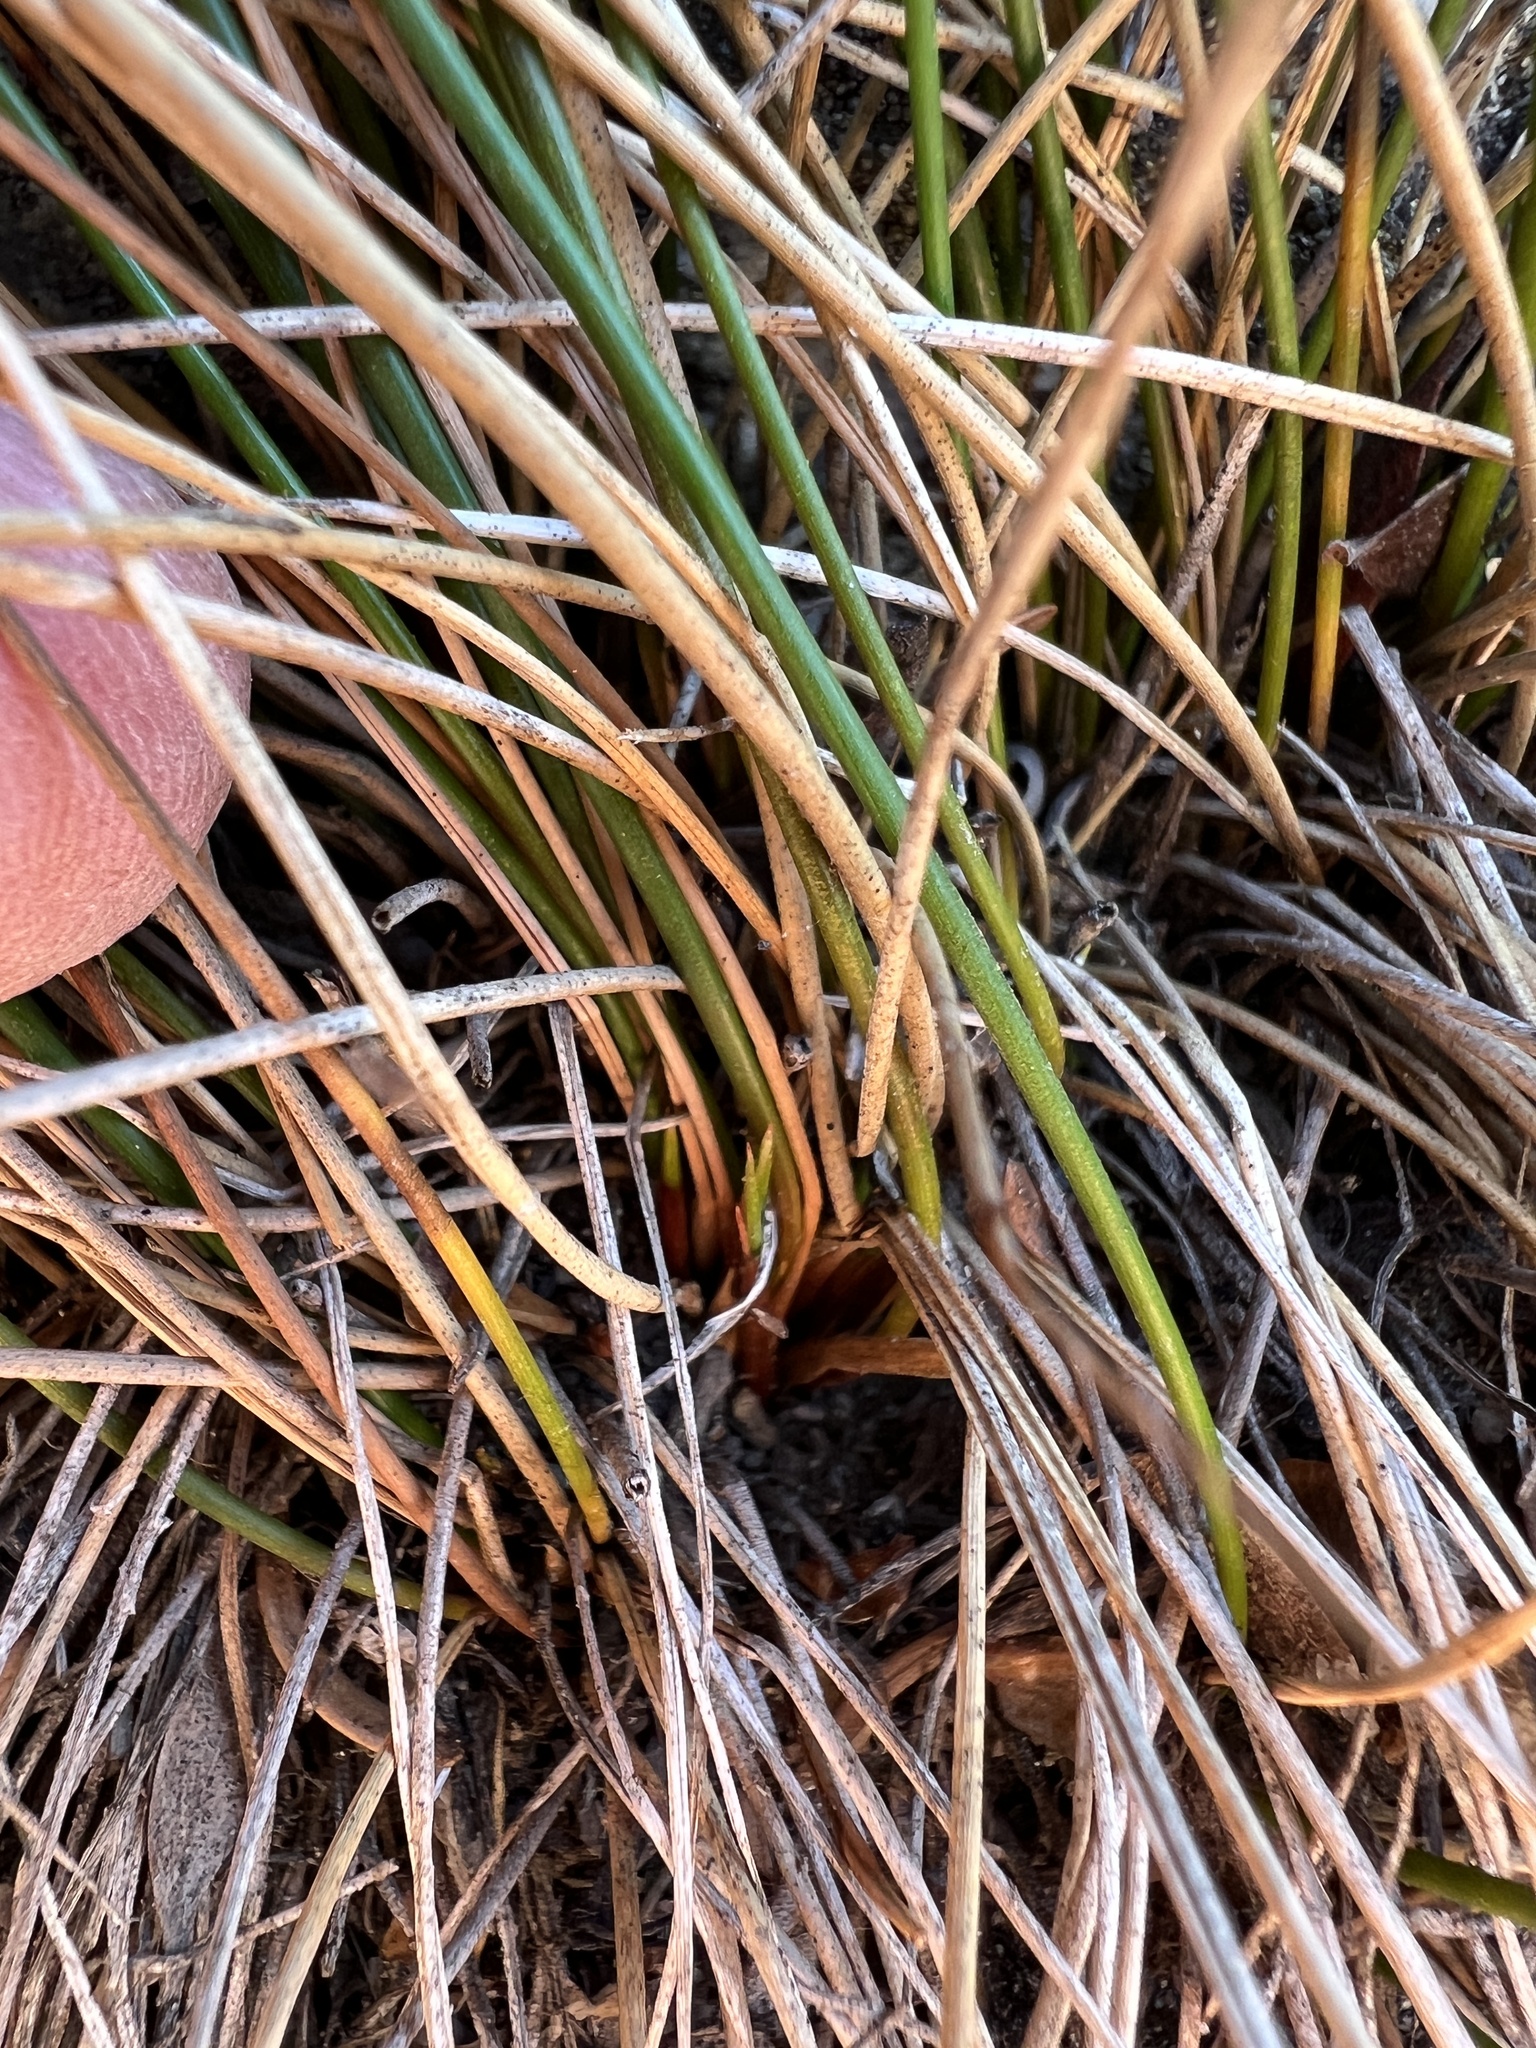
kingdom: Plantae
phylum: Tracheophyta
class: Liliopsida
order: Poales
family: Juncaceae
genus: Juncus
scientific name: Juncus parryi
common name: Parry's rush
